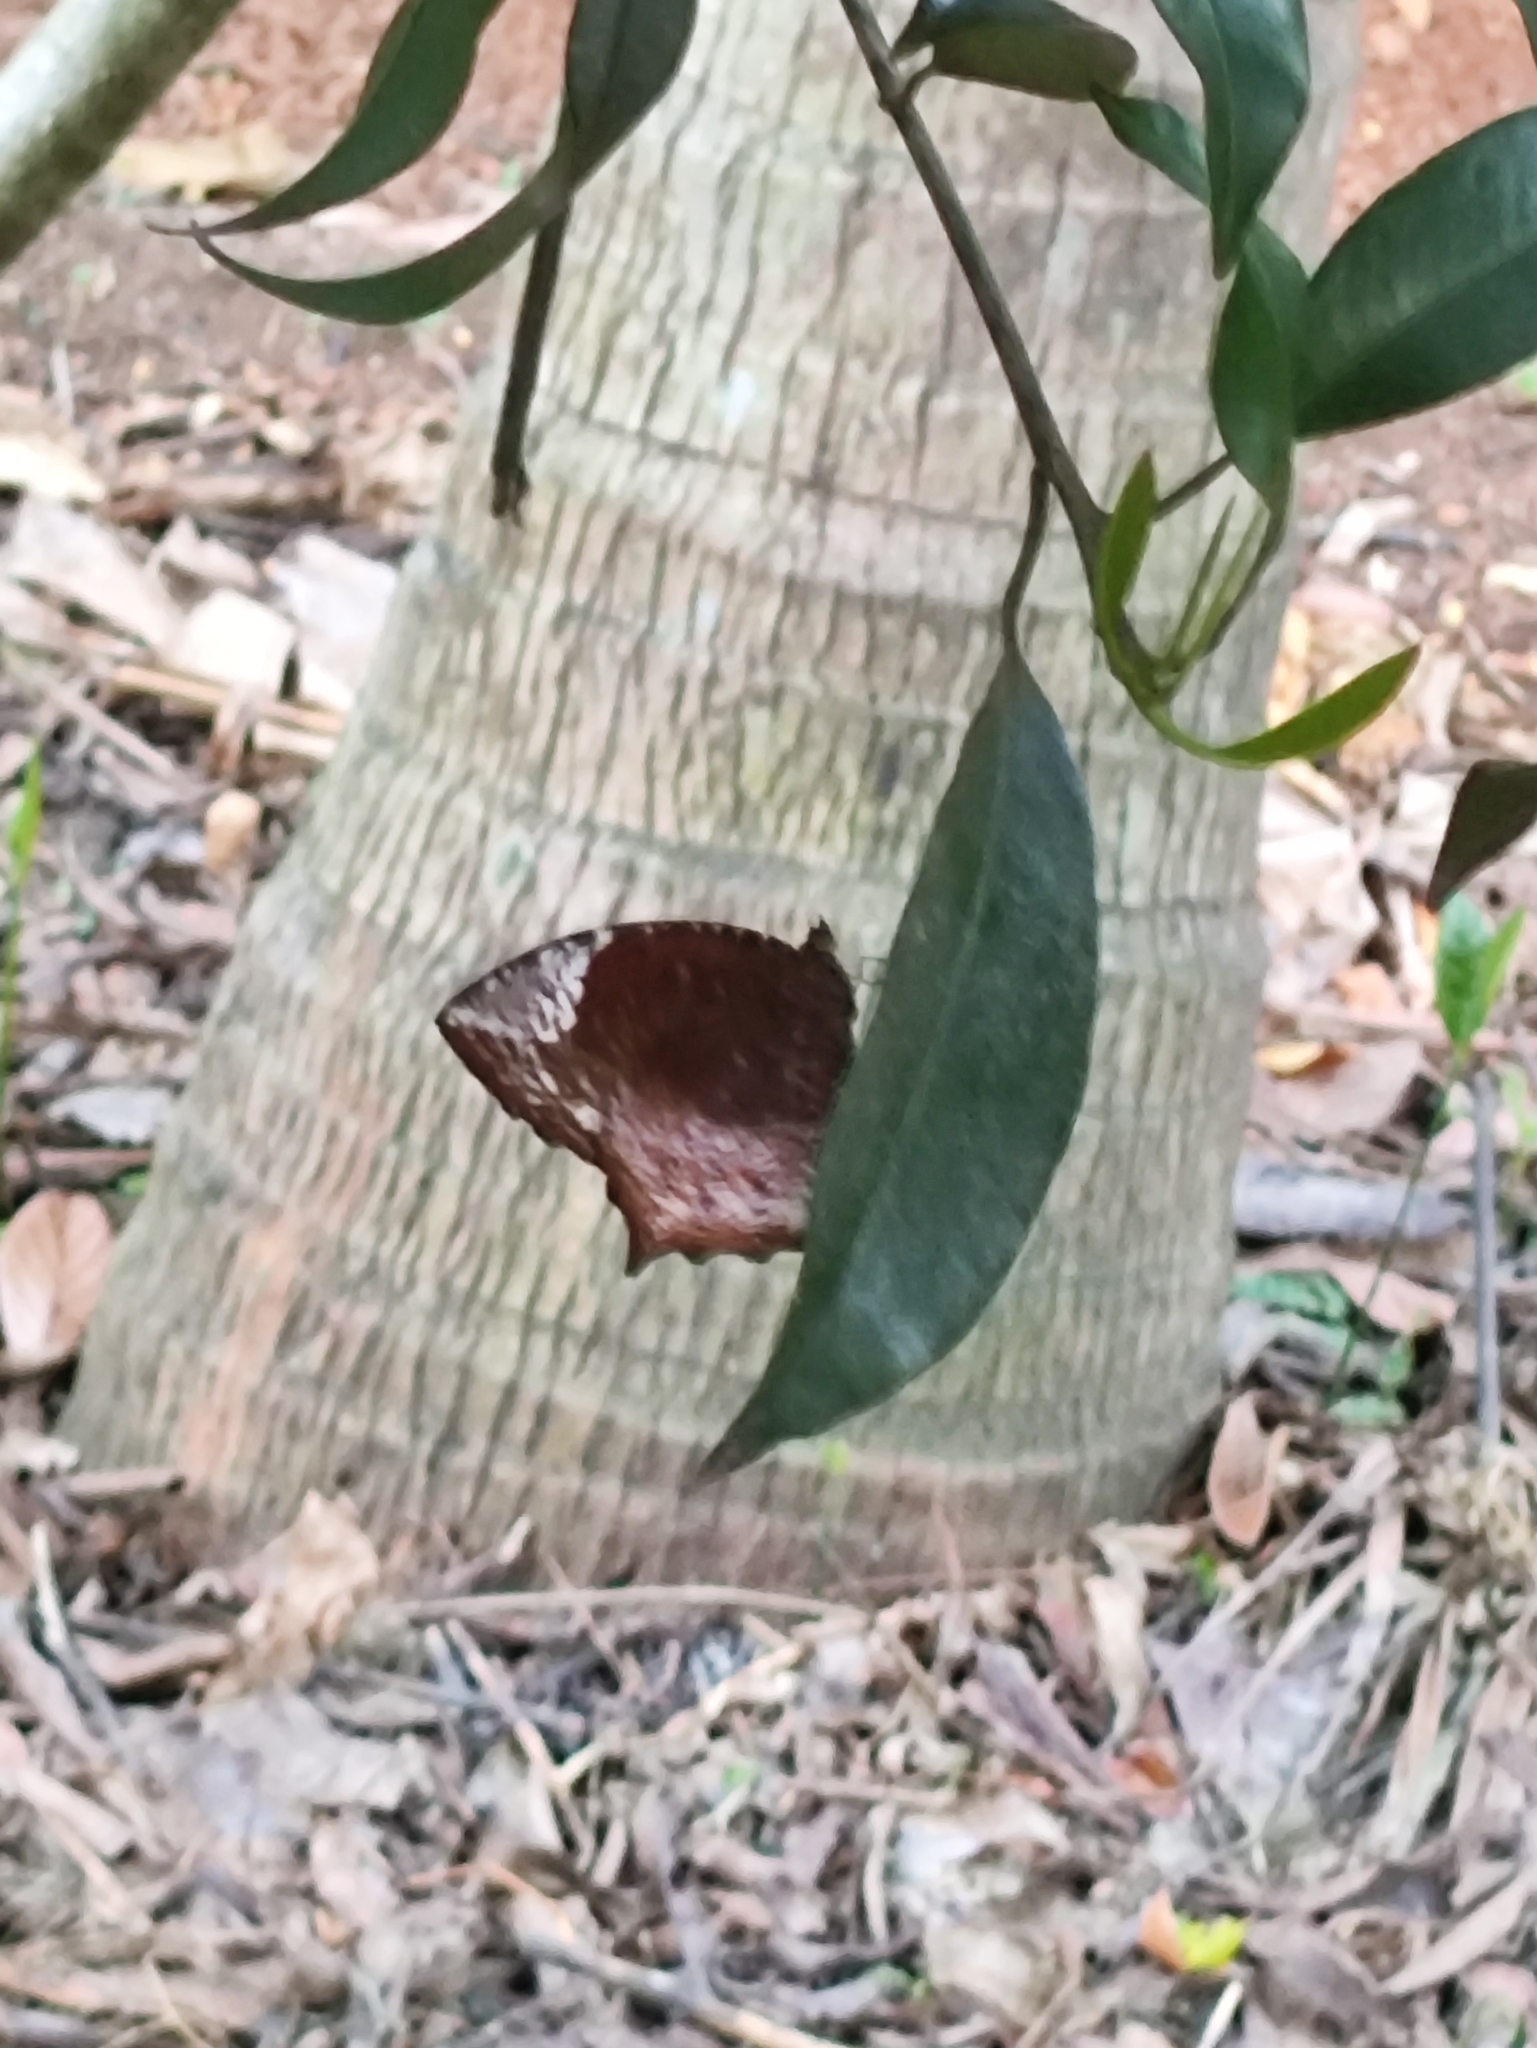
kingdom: Animalia
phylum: Arthropoda
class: Insecta
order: Lepidoptera
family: Nymphalidae
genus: Elymnias
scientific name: Elymnias caudata
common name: Tailed palmfly
